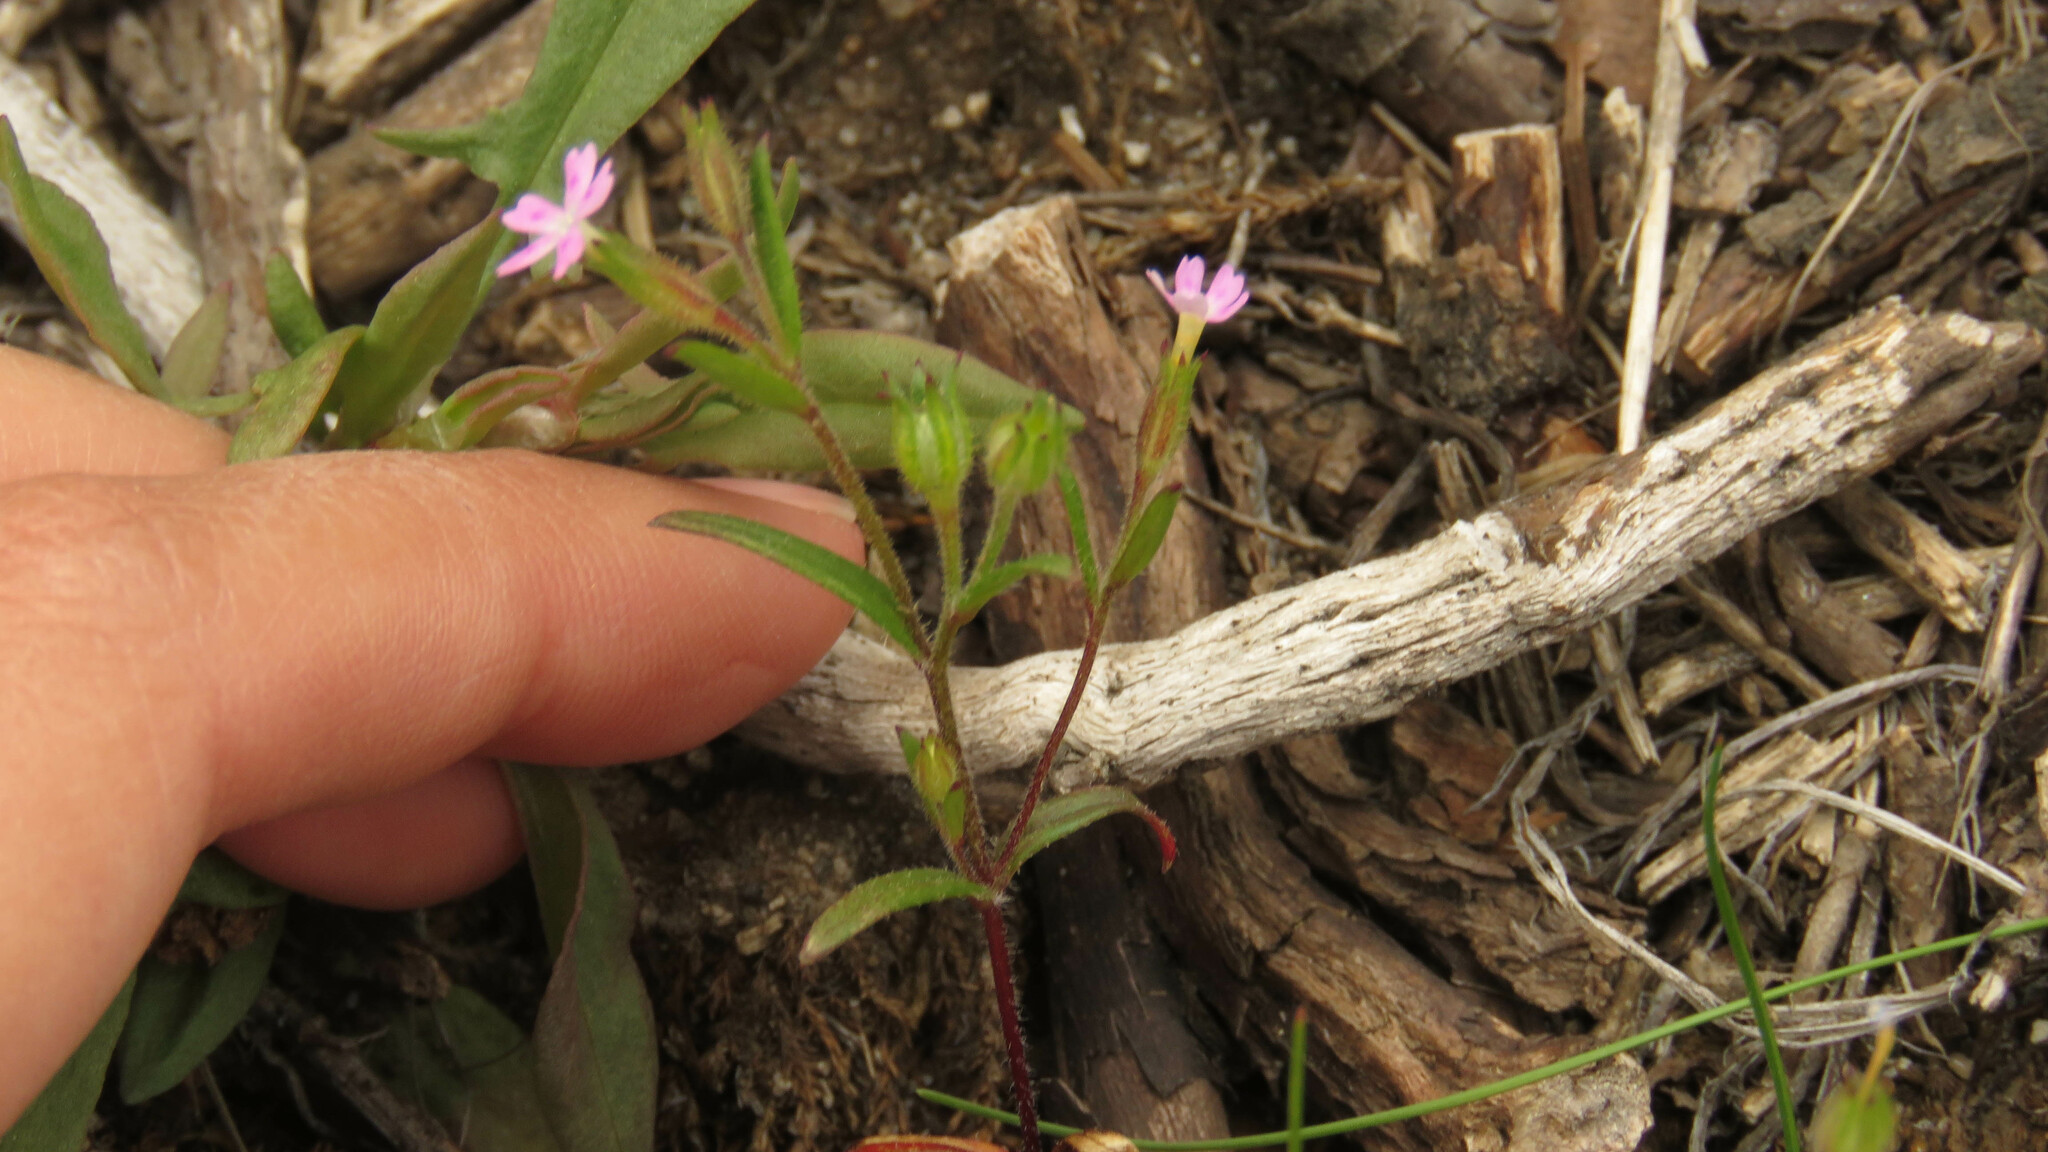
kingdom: Plantae
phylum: Tracheophyta
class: Magnoliopsida
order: Ericales
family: Polemoniaceae
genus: Phlox
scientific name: Phlox gracilis
